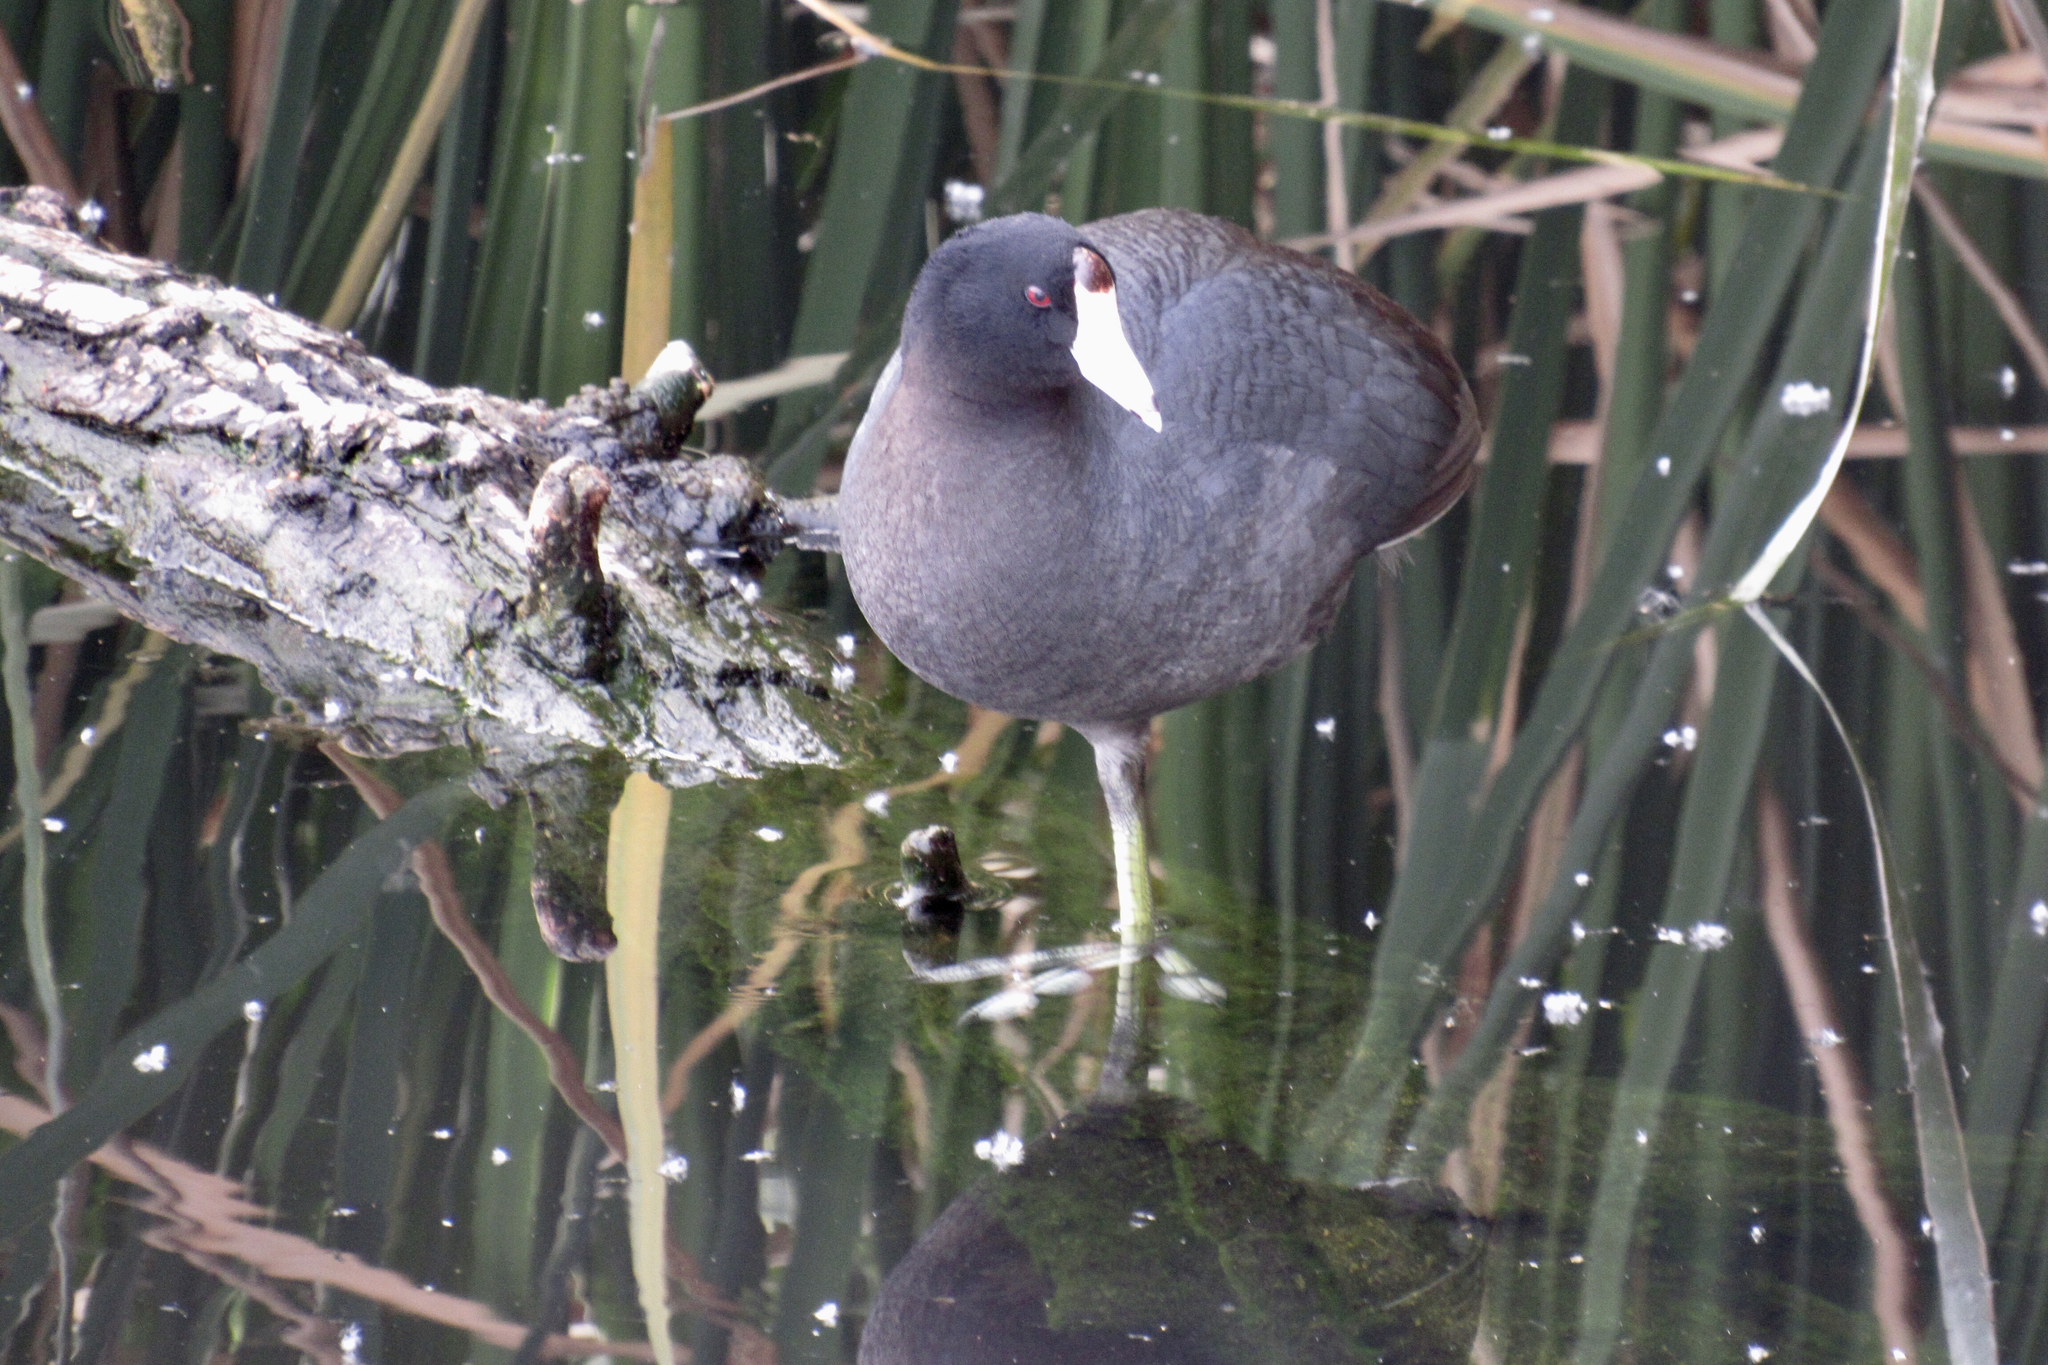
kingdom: Animalia
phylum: Chordata
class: Aves
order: Gruiformes
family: Rallidae
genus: Fulica
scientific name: Fulica americana
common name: American coot
